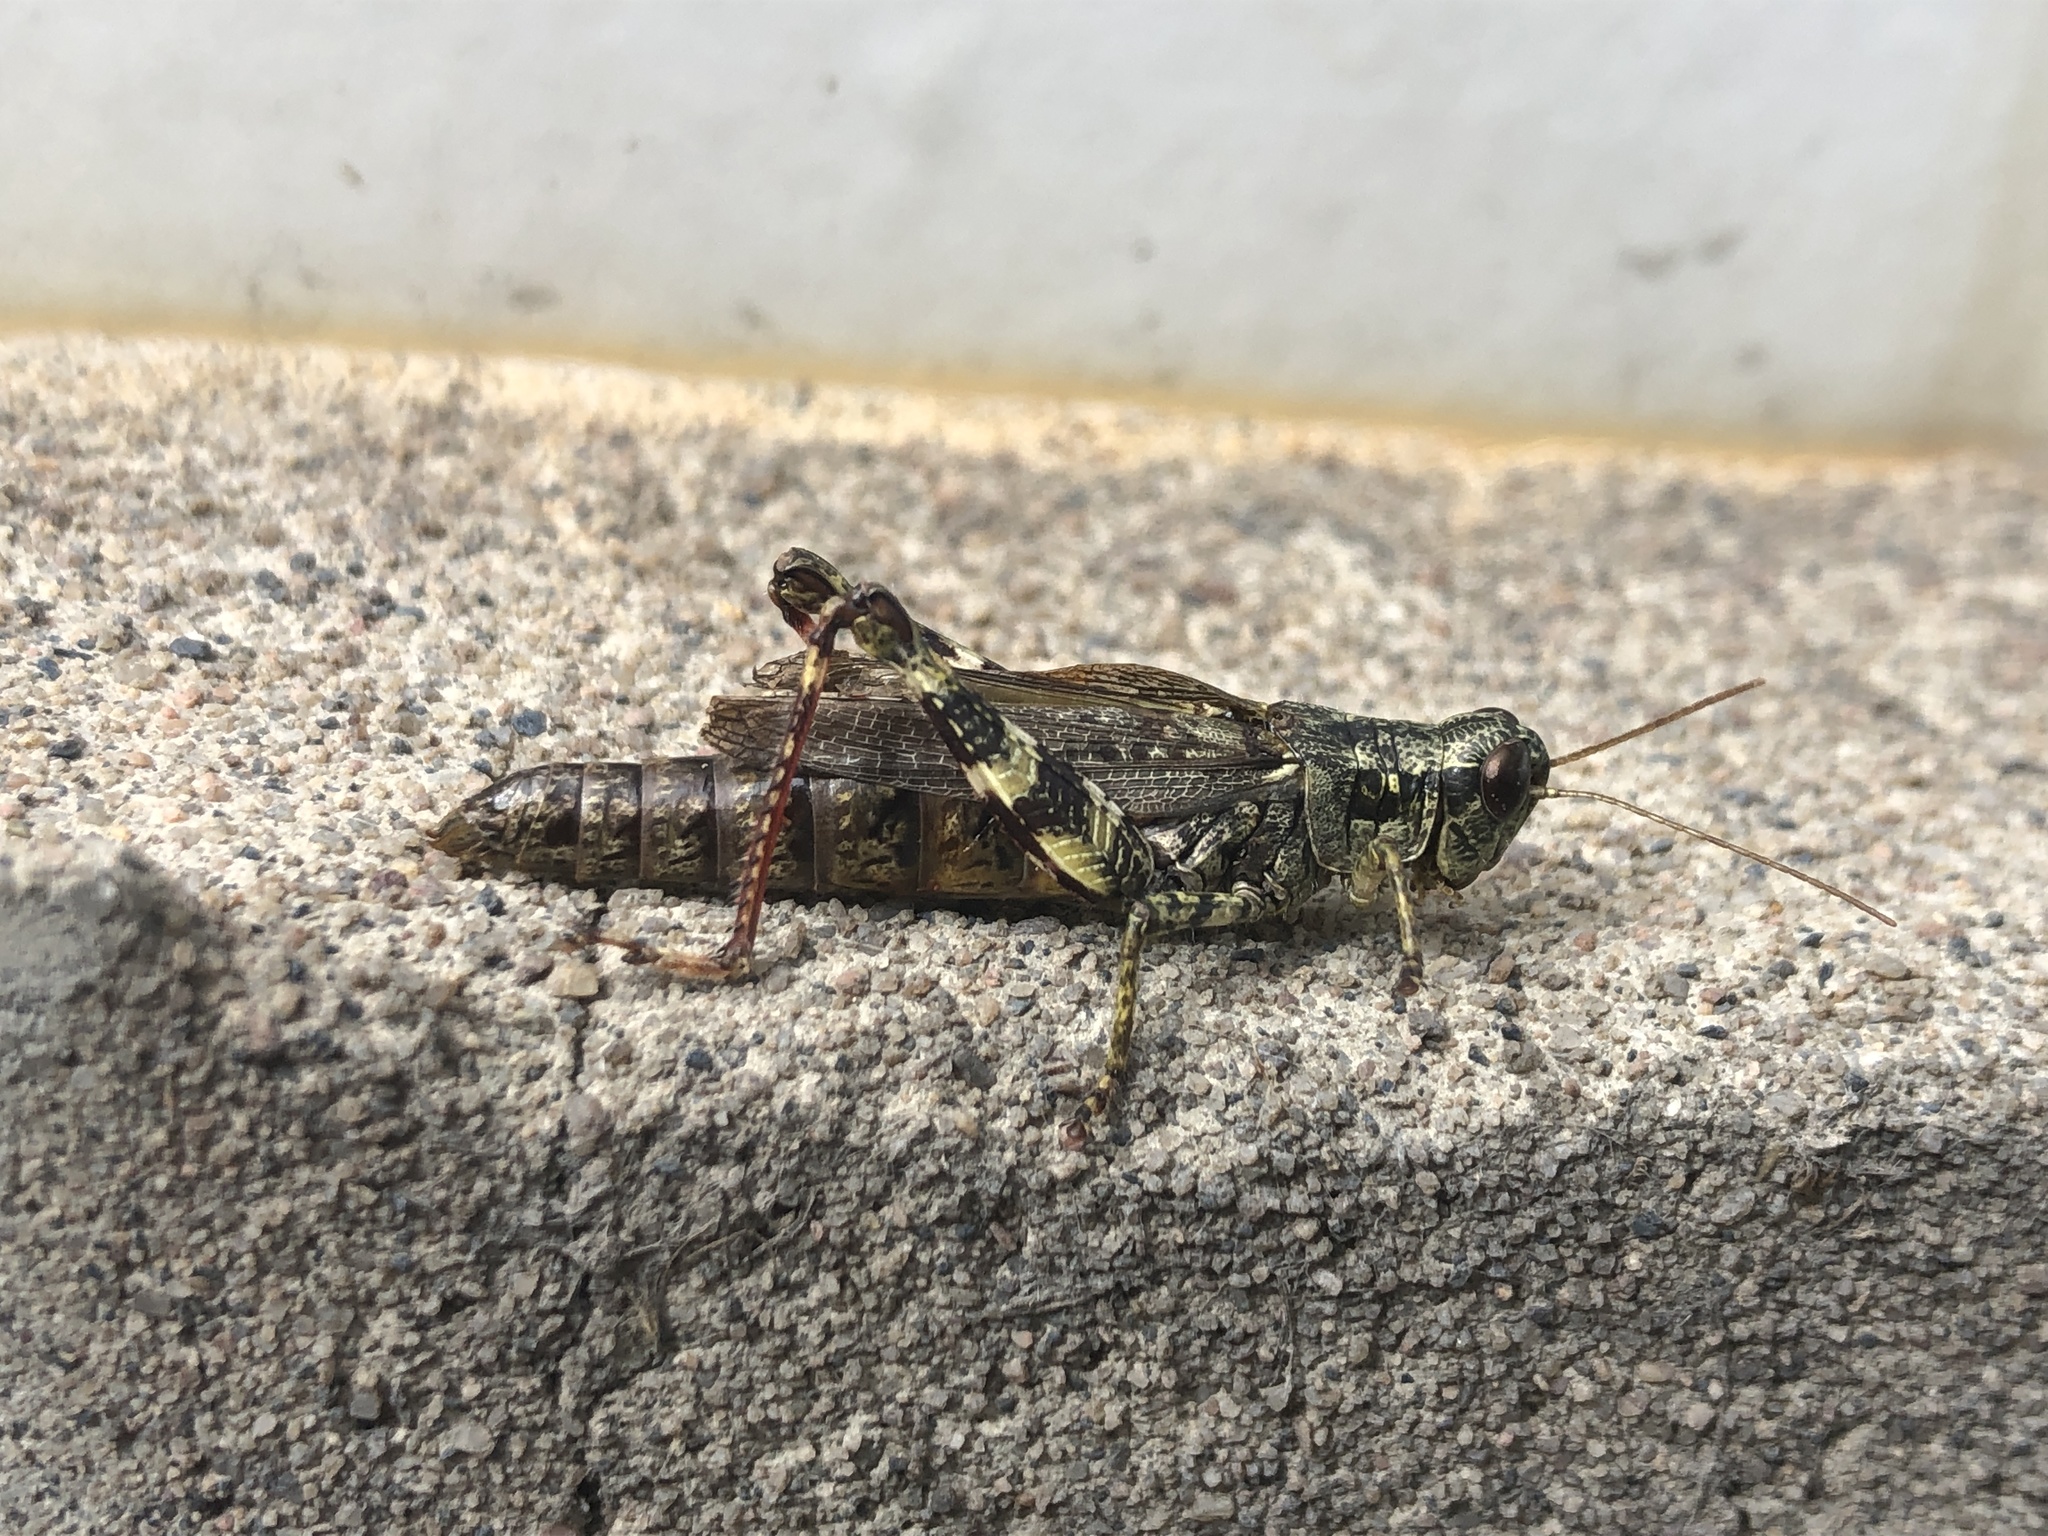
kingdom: Animalia
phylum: Arthropoda
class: Insecta
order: Orthoptera
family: Acrididae
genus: Melanoplus
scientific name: Melanoplus punctulatus
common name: Pine-tree spur-throat grasshopper
